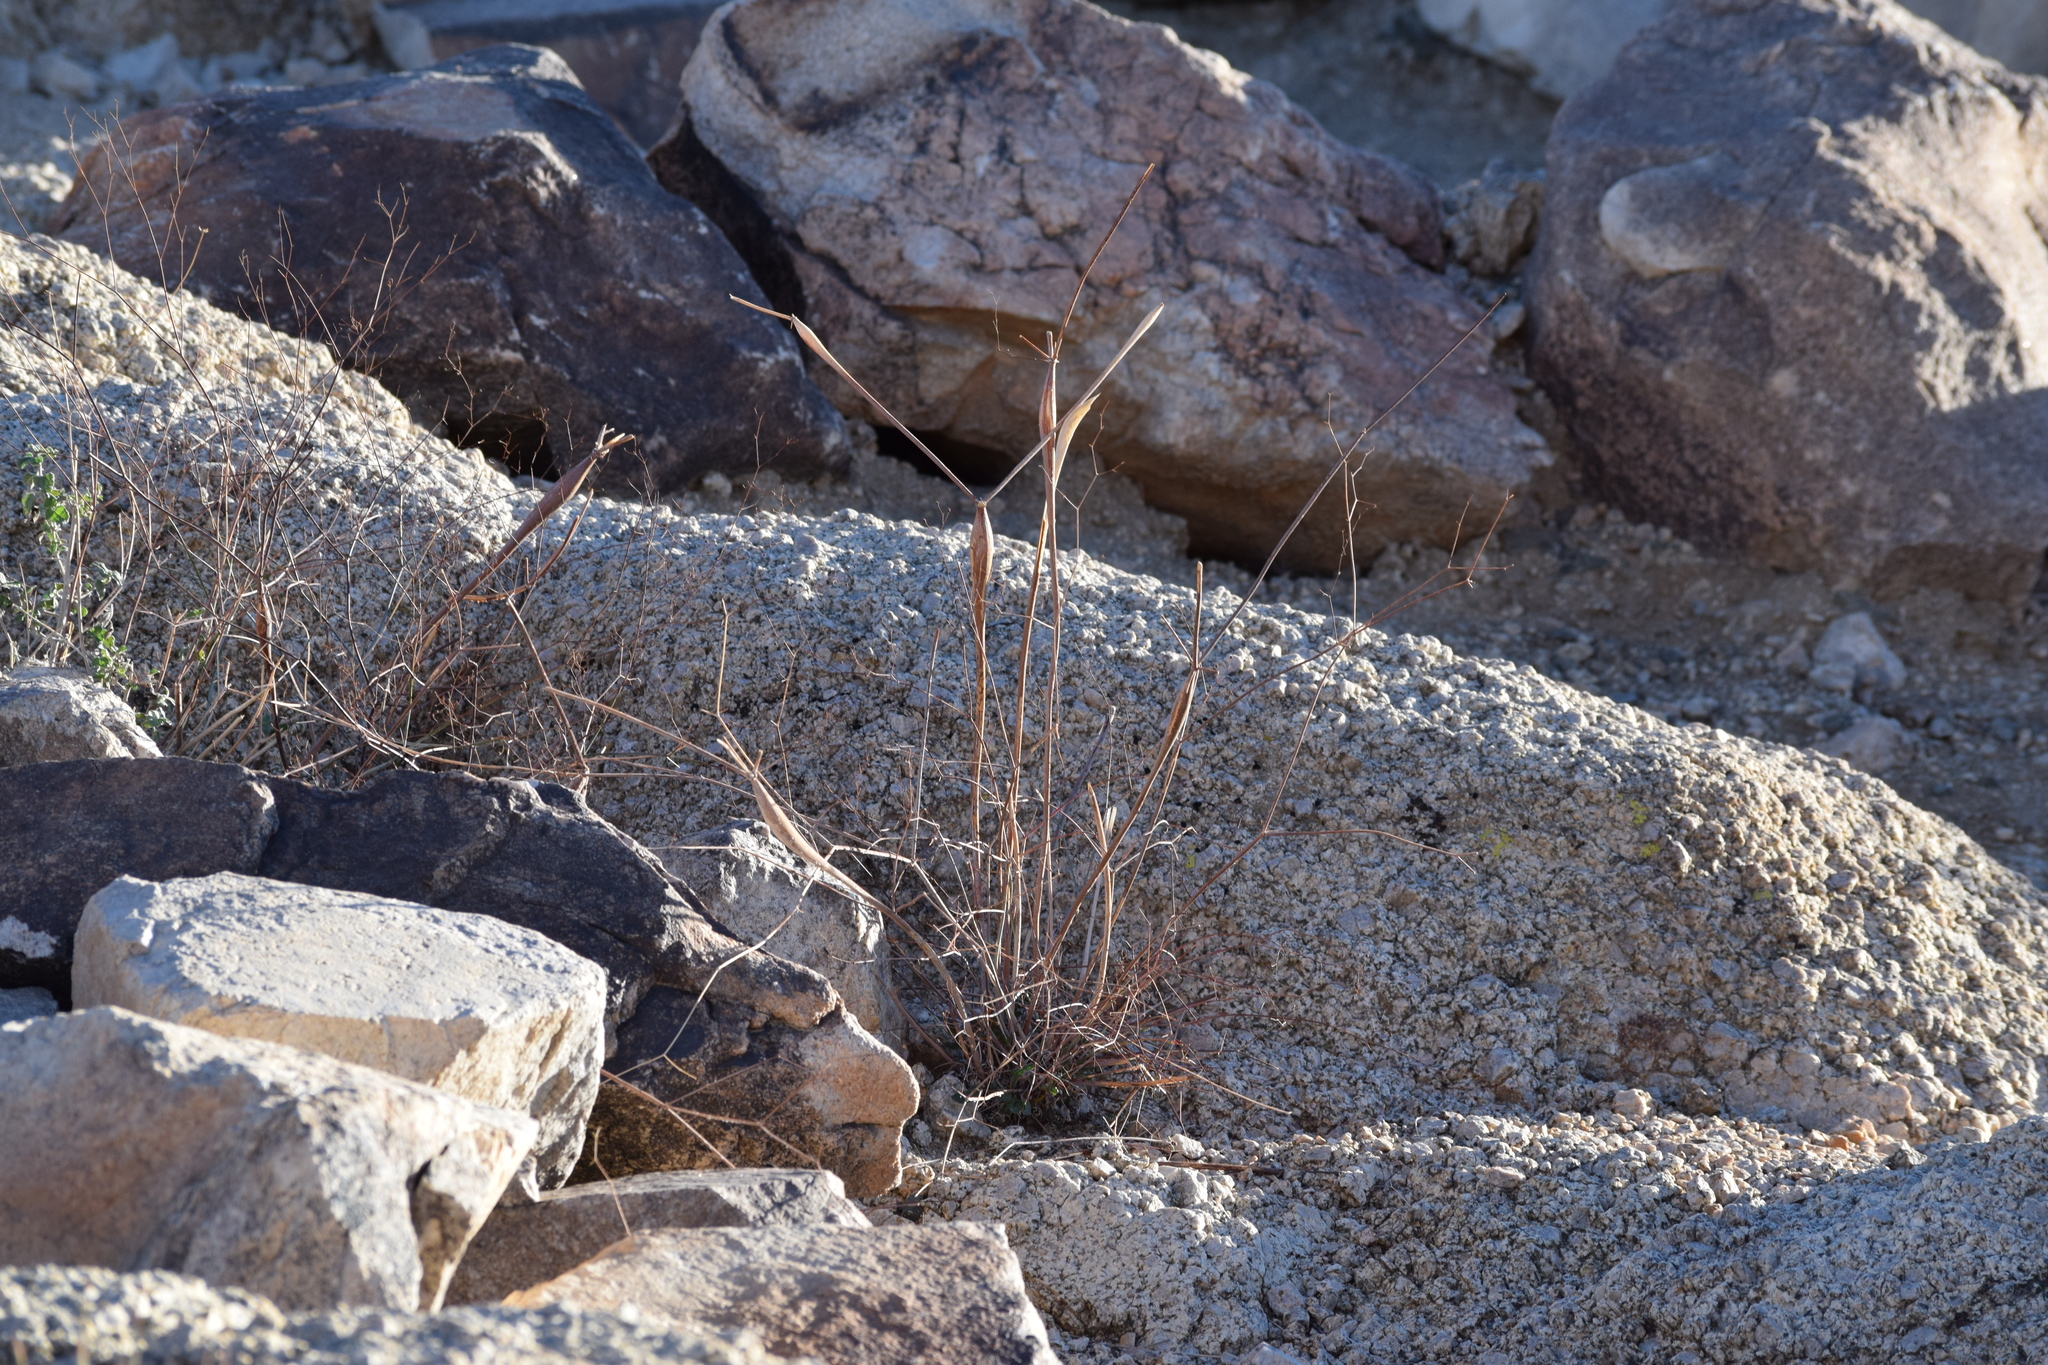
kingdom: Plantae
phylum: Tracheophyta
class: Magnoliopsida
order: Caryophyllales
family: Polygonaceae
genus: Eriogonum
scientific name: Eriogonum inflatum
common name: Desert trumpet
